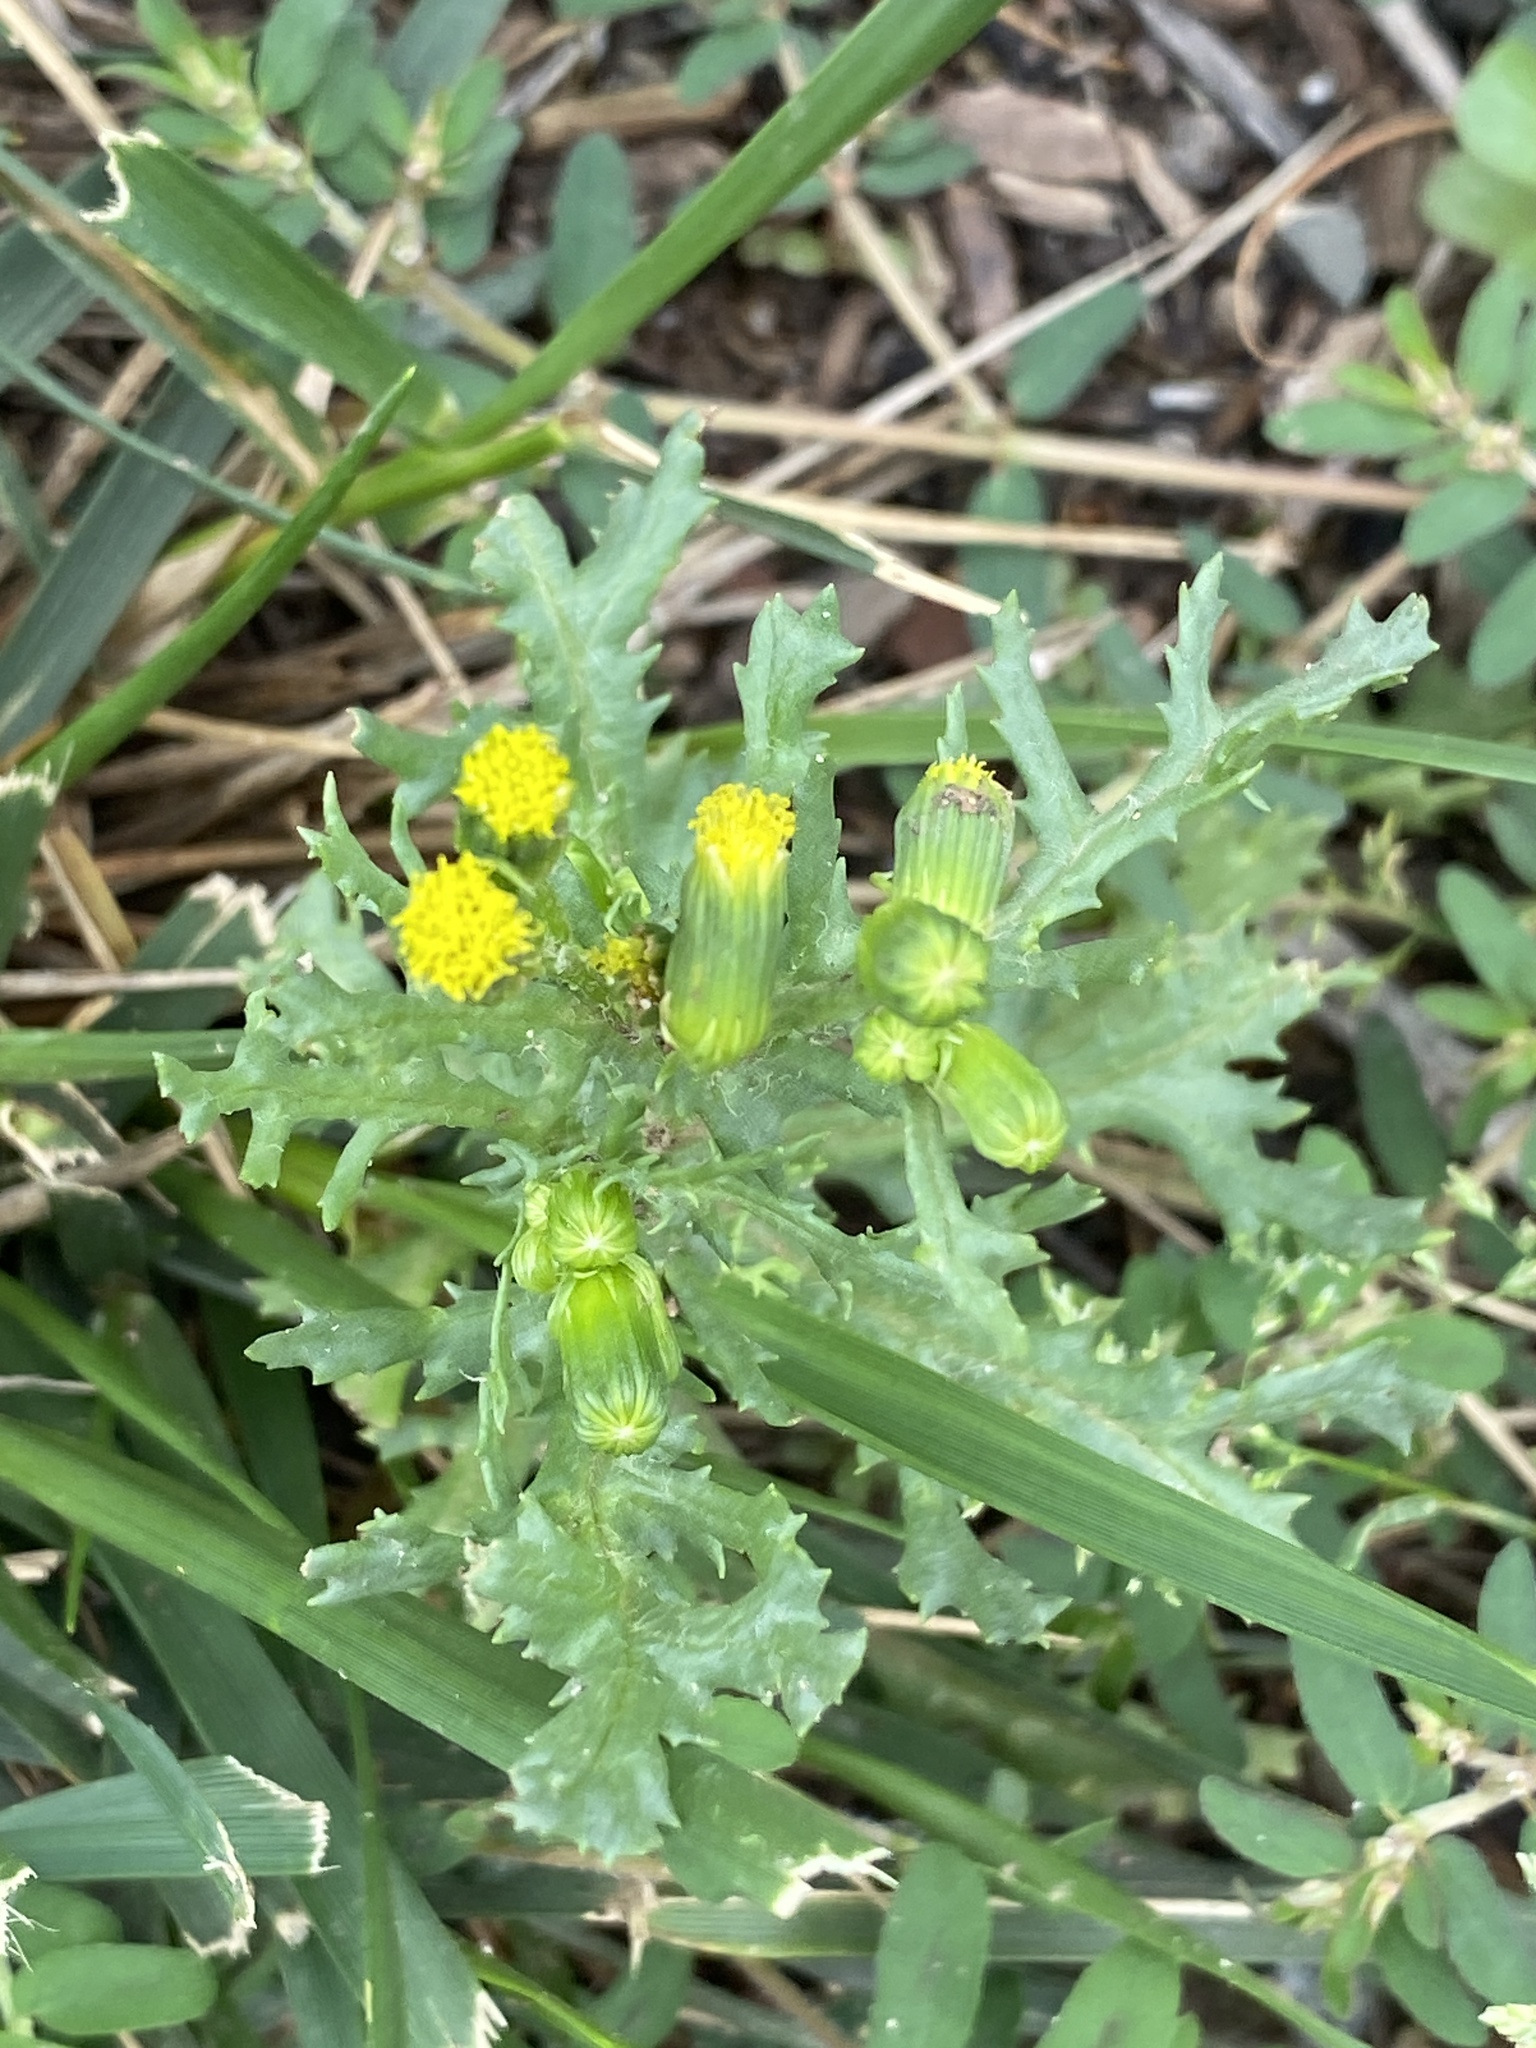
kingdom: Plantae
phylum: Tracheophyta
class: Magnoliopsida
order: Asterales
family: Asteraceae
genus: Senecio
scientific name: Senecio vulgaris
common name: Old-man-in-the-spring
